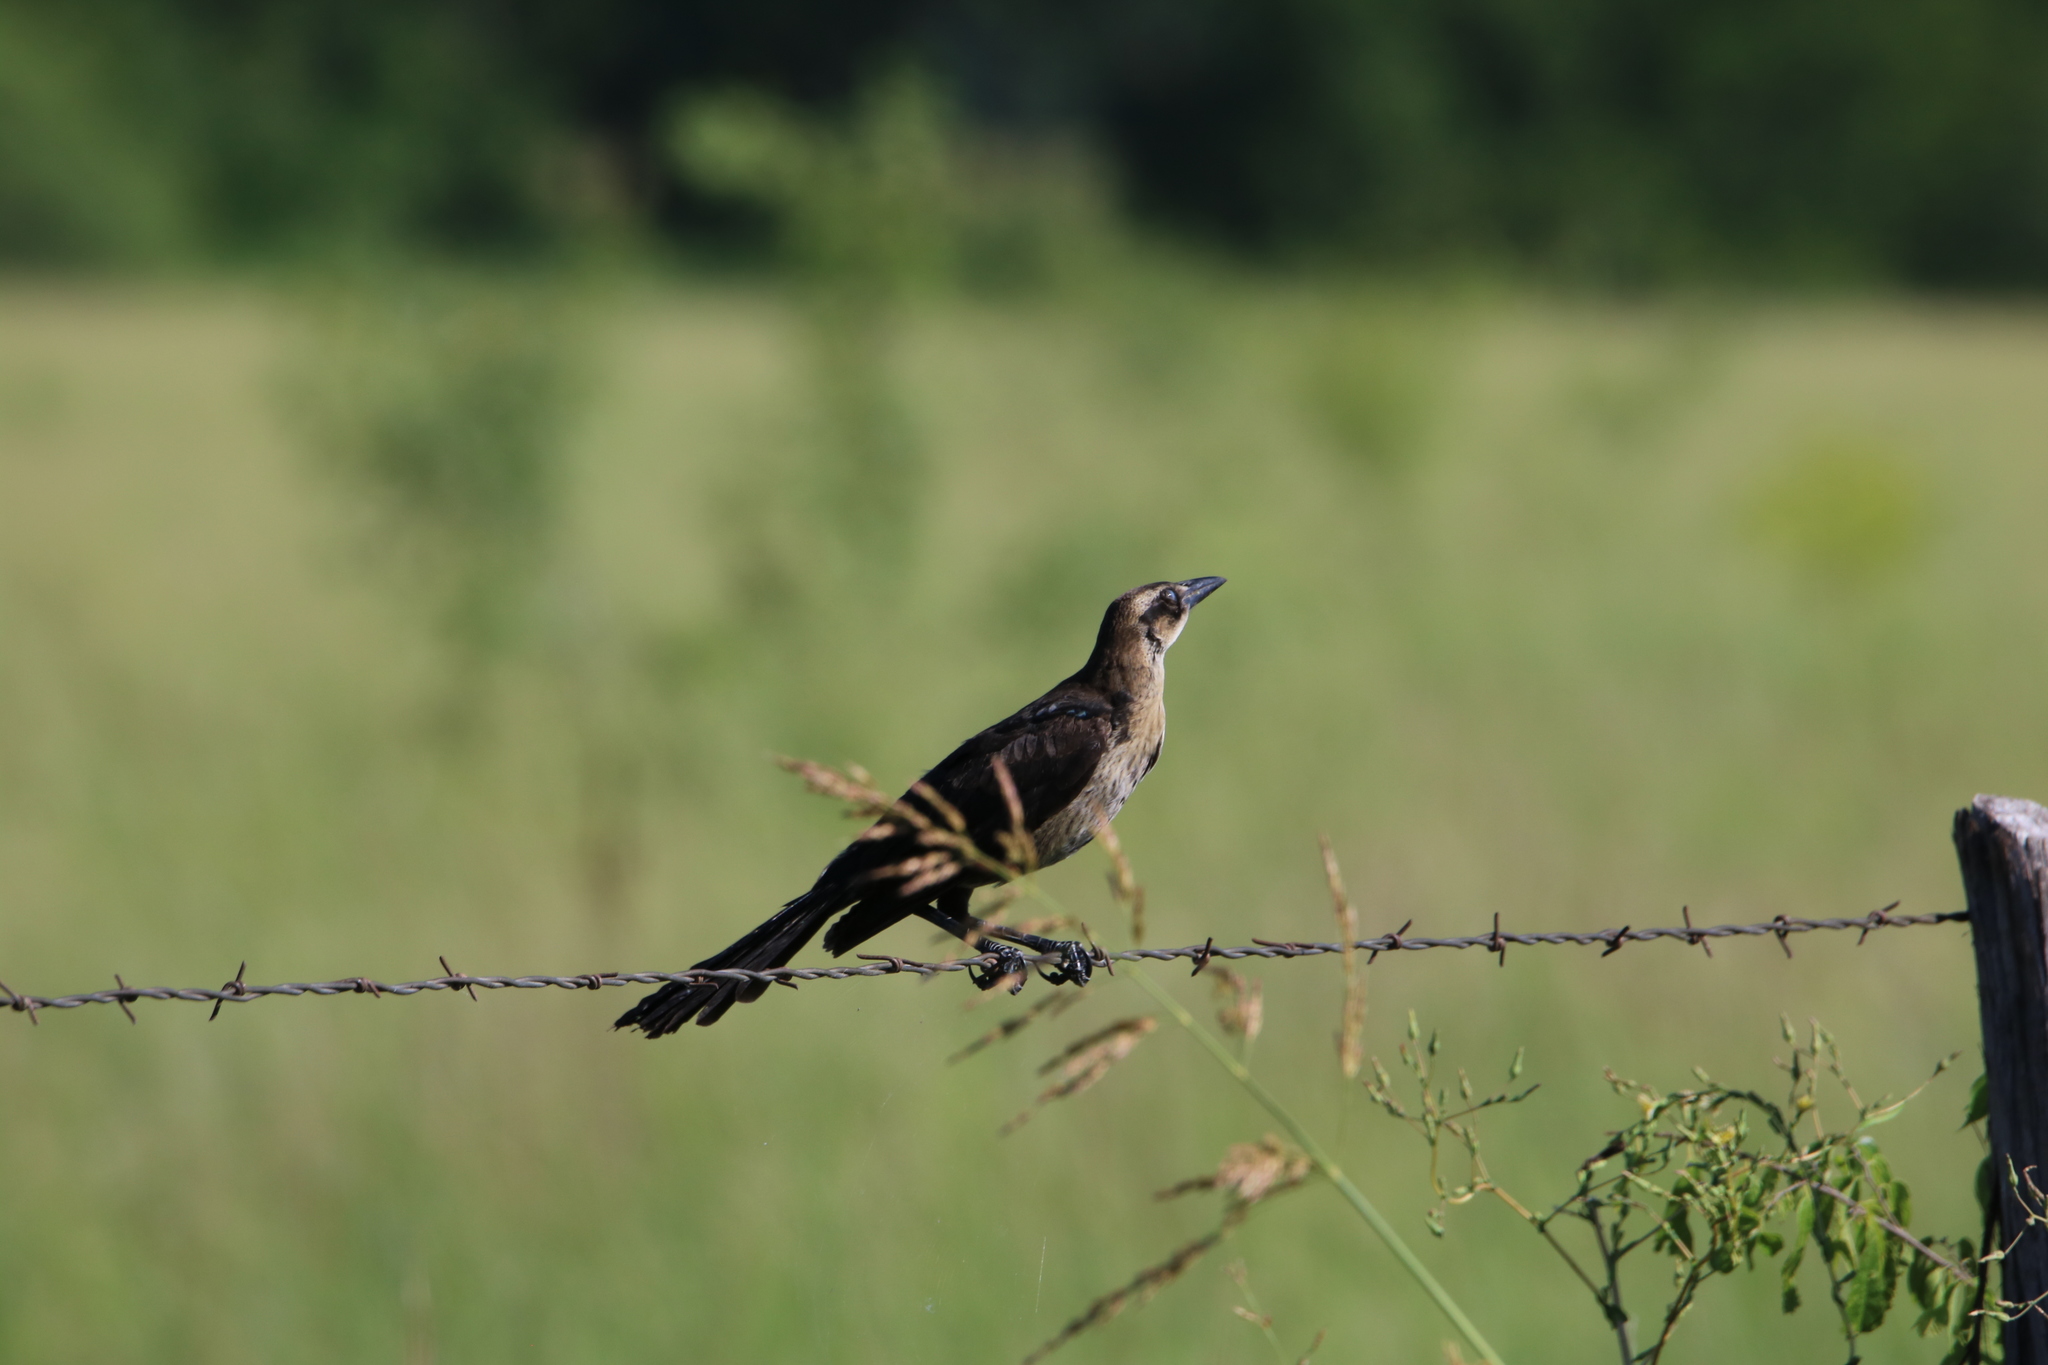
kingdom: Animalia
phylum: Chordata
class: Aves
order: Passeriformes
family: Icteridae
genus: Quiscalus
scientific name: Quiscalus mexicanus
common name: Great-tailed grackle
